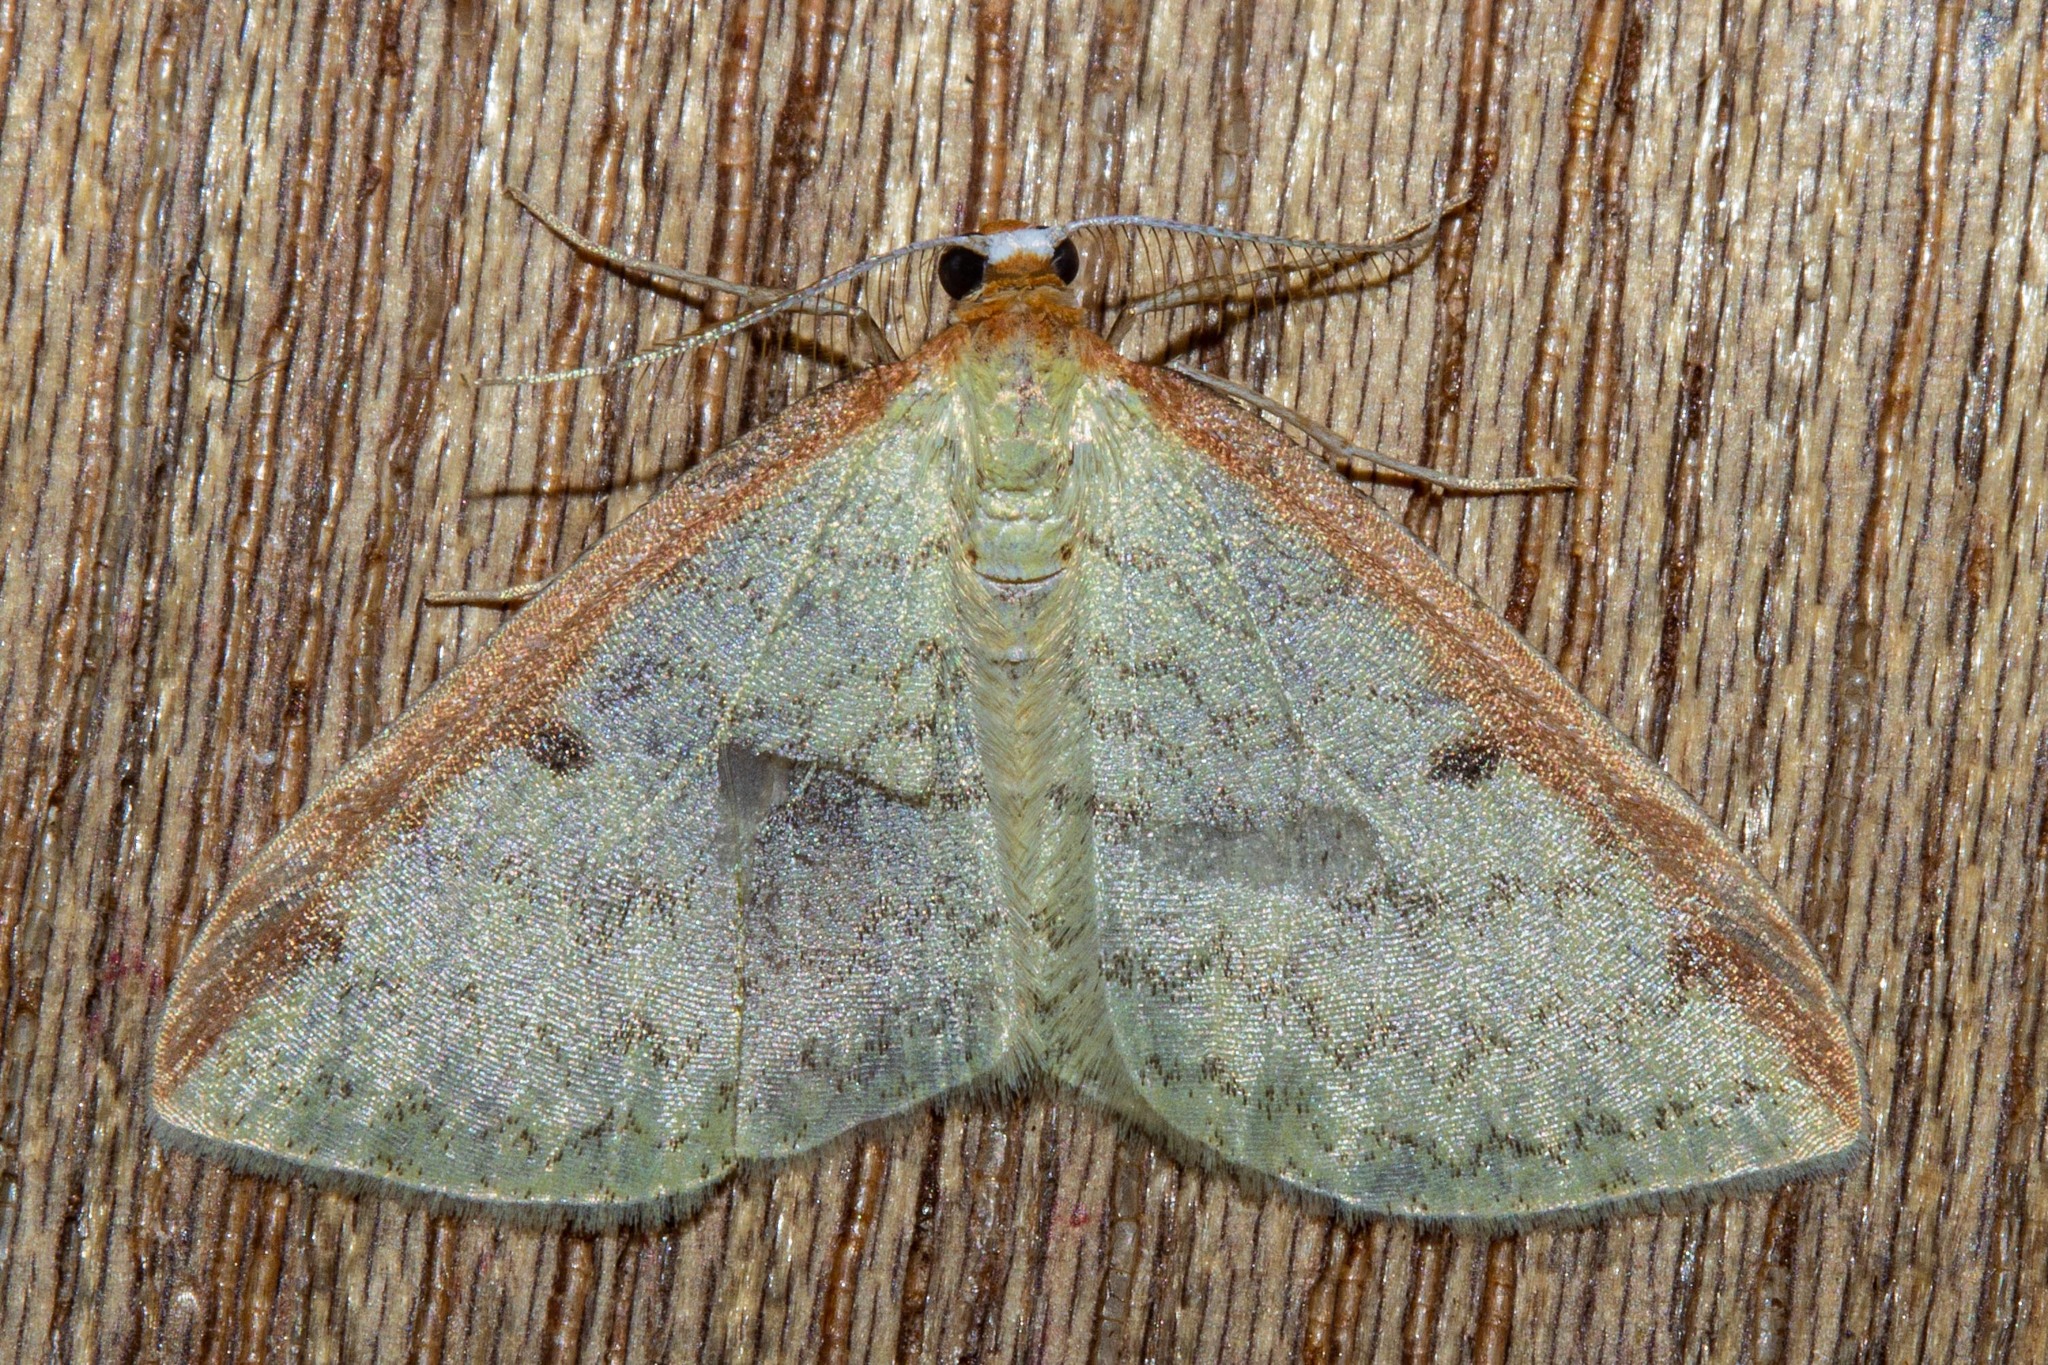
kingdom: Animalia
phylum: Arthropoda
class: Insecta
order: Lepidoptera
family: Geometridae
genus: Epiphryne
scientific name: Epiphryne undosata
